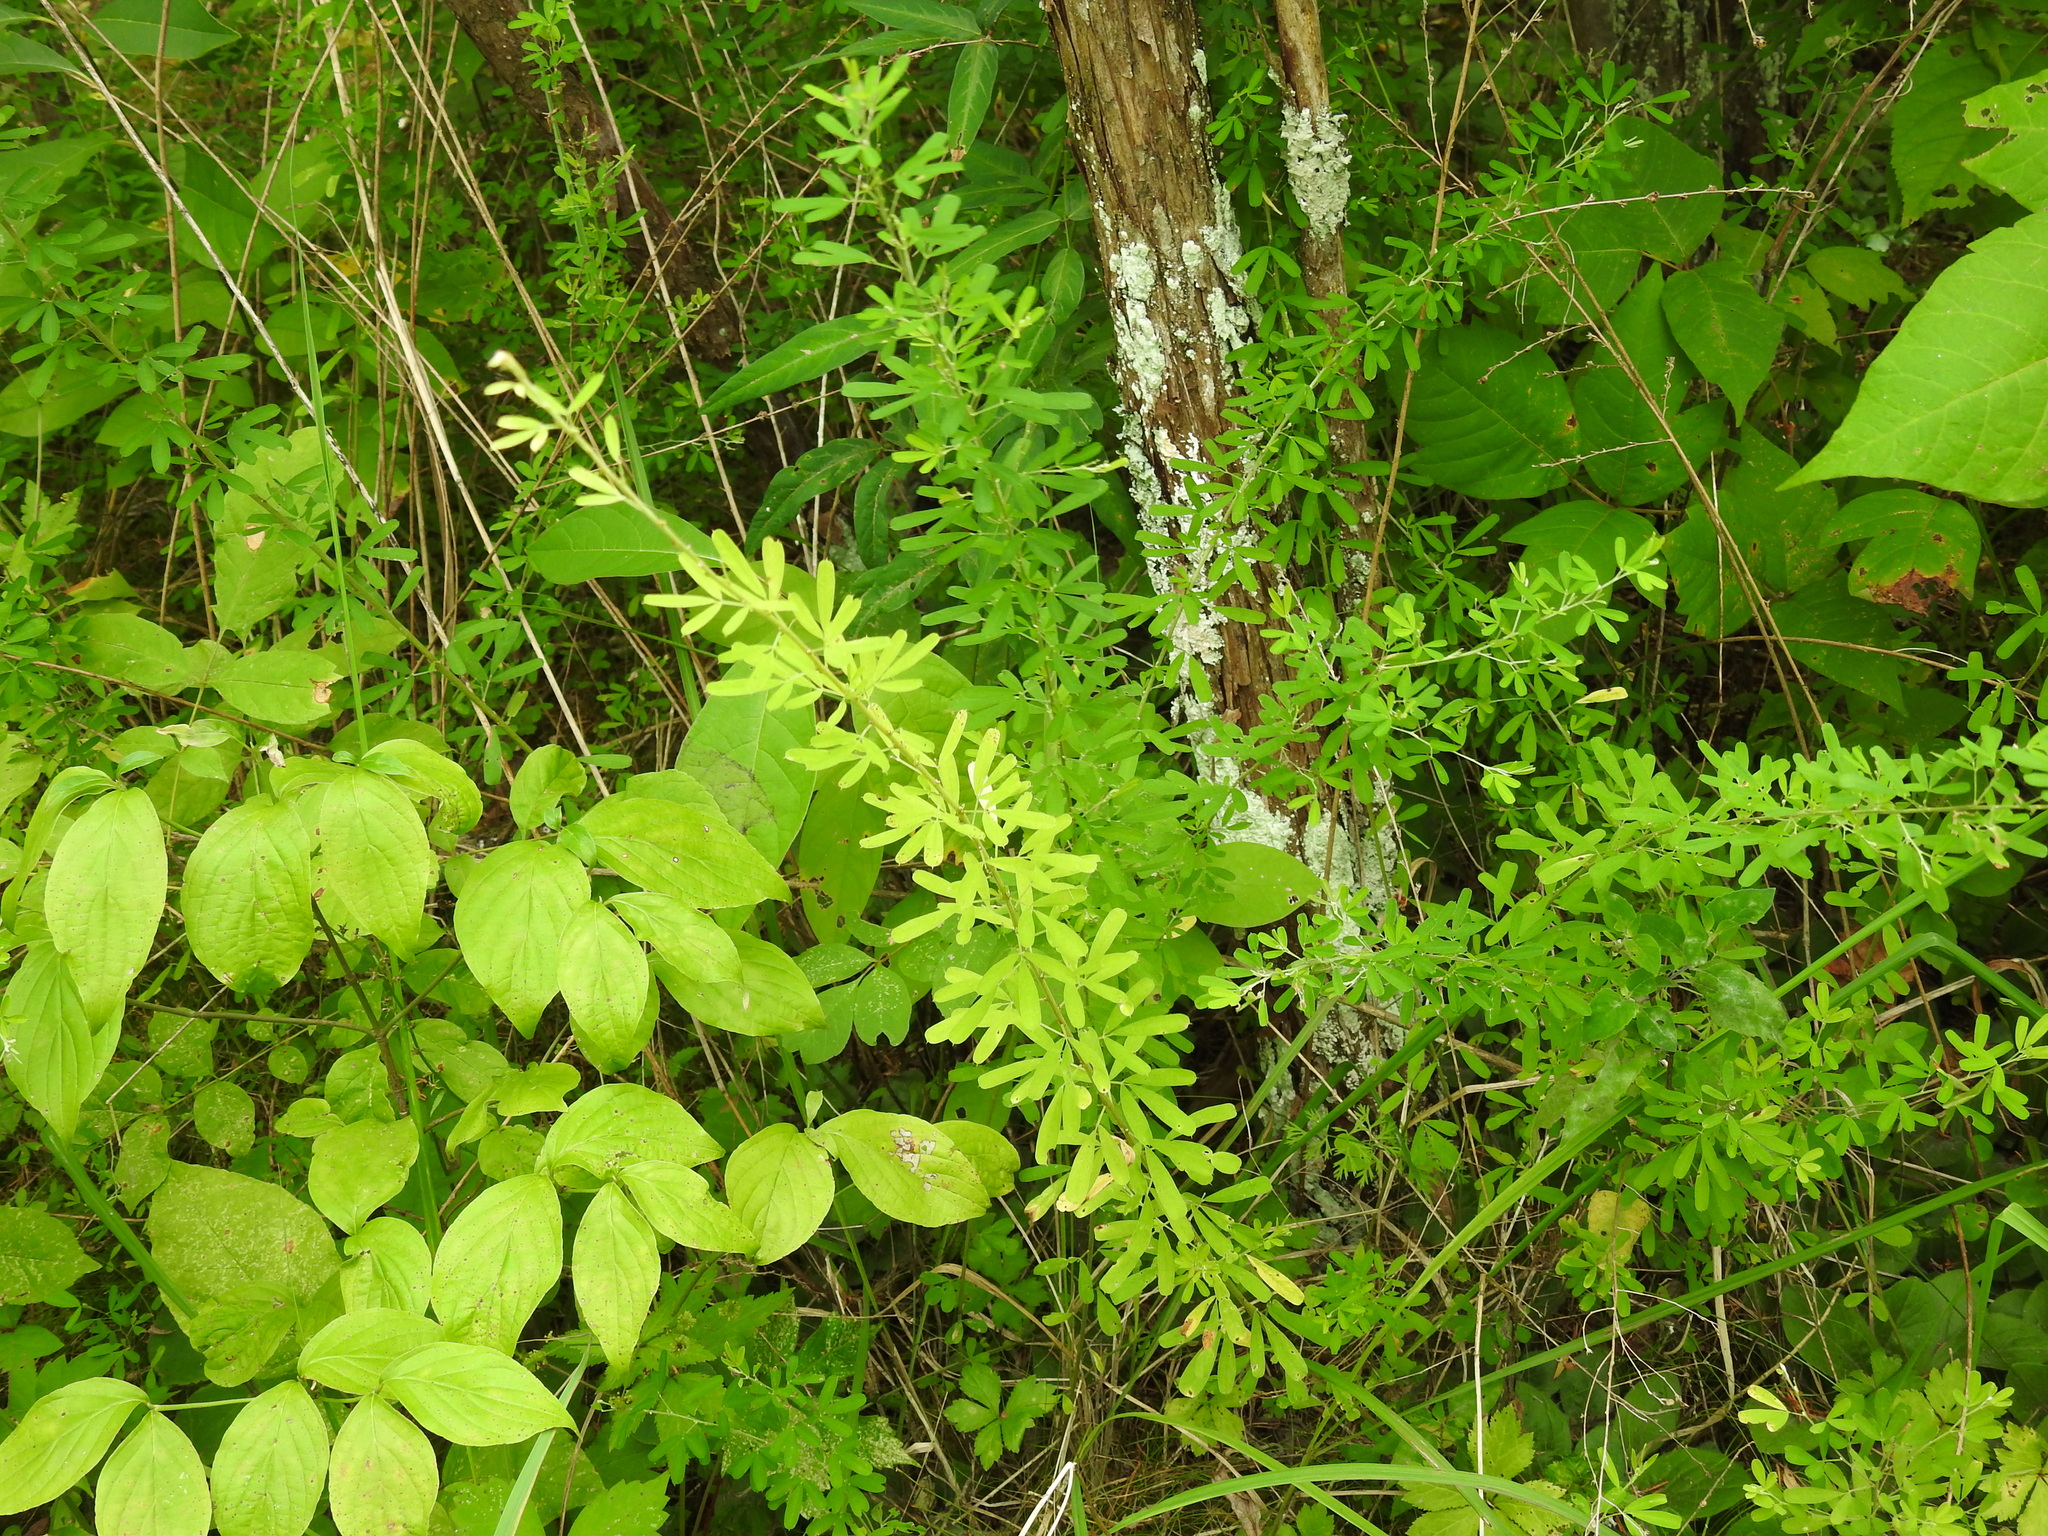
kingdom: Plantae
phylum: Tracheophyta
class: Magnoliopsida
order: Fabales
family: Fabaceae
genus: Lespedeza
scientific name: Lespedeza cuneata
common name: Chinese bush-clover
